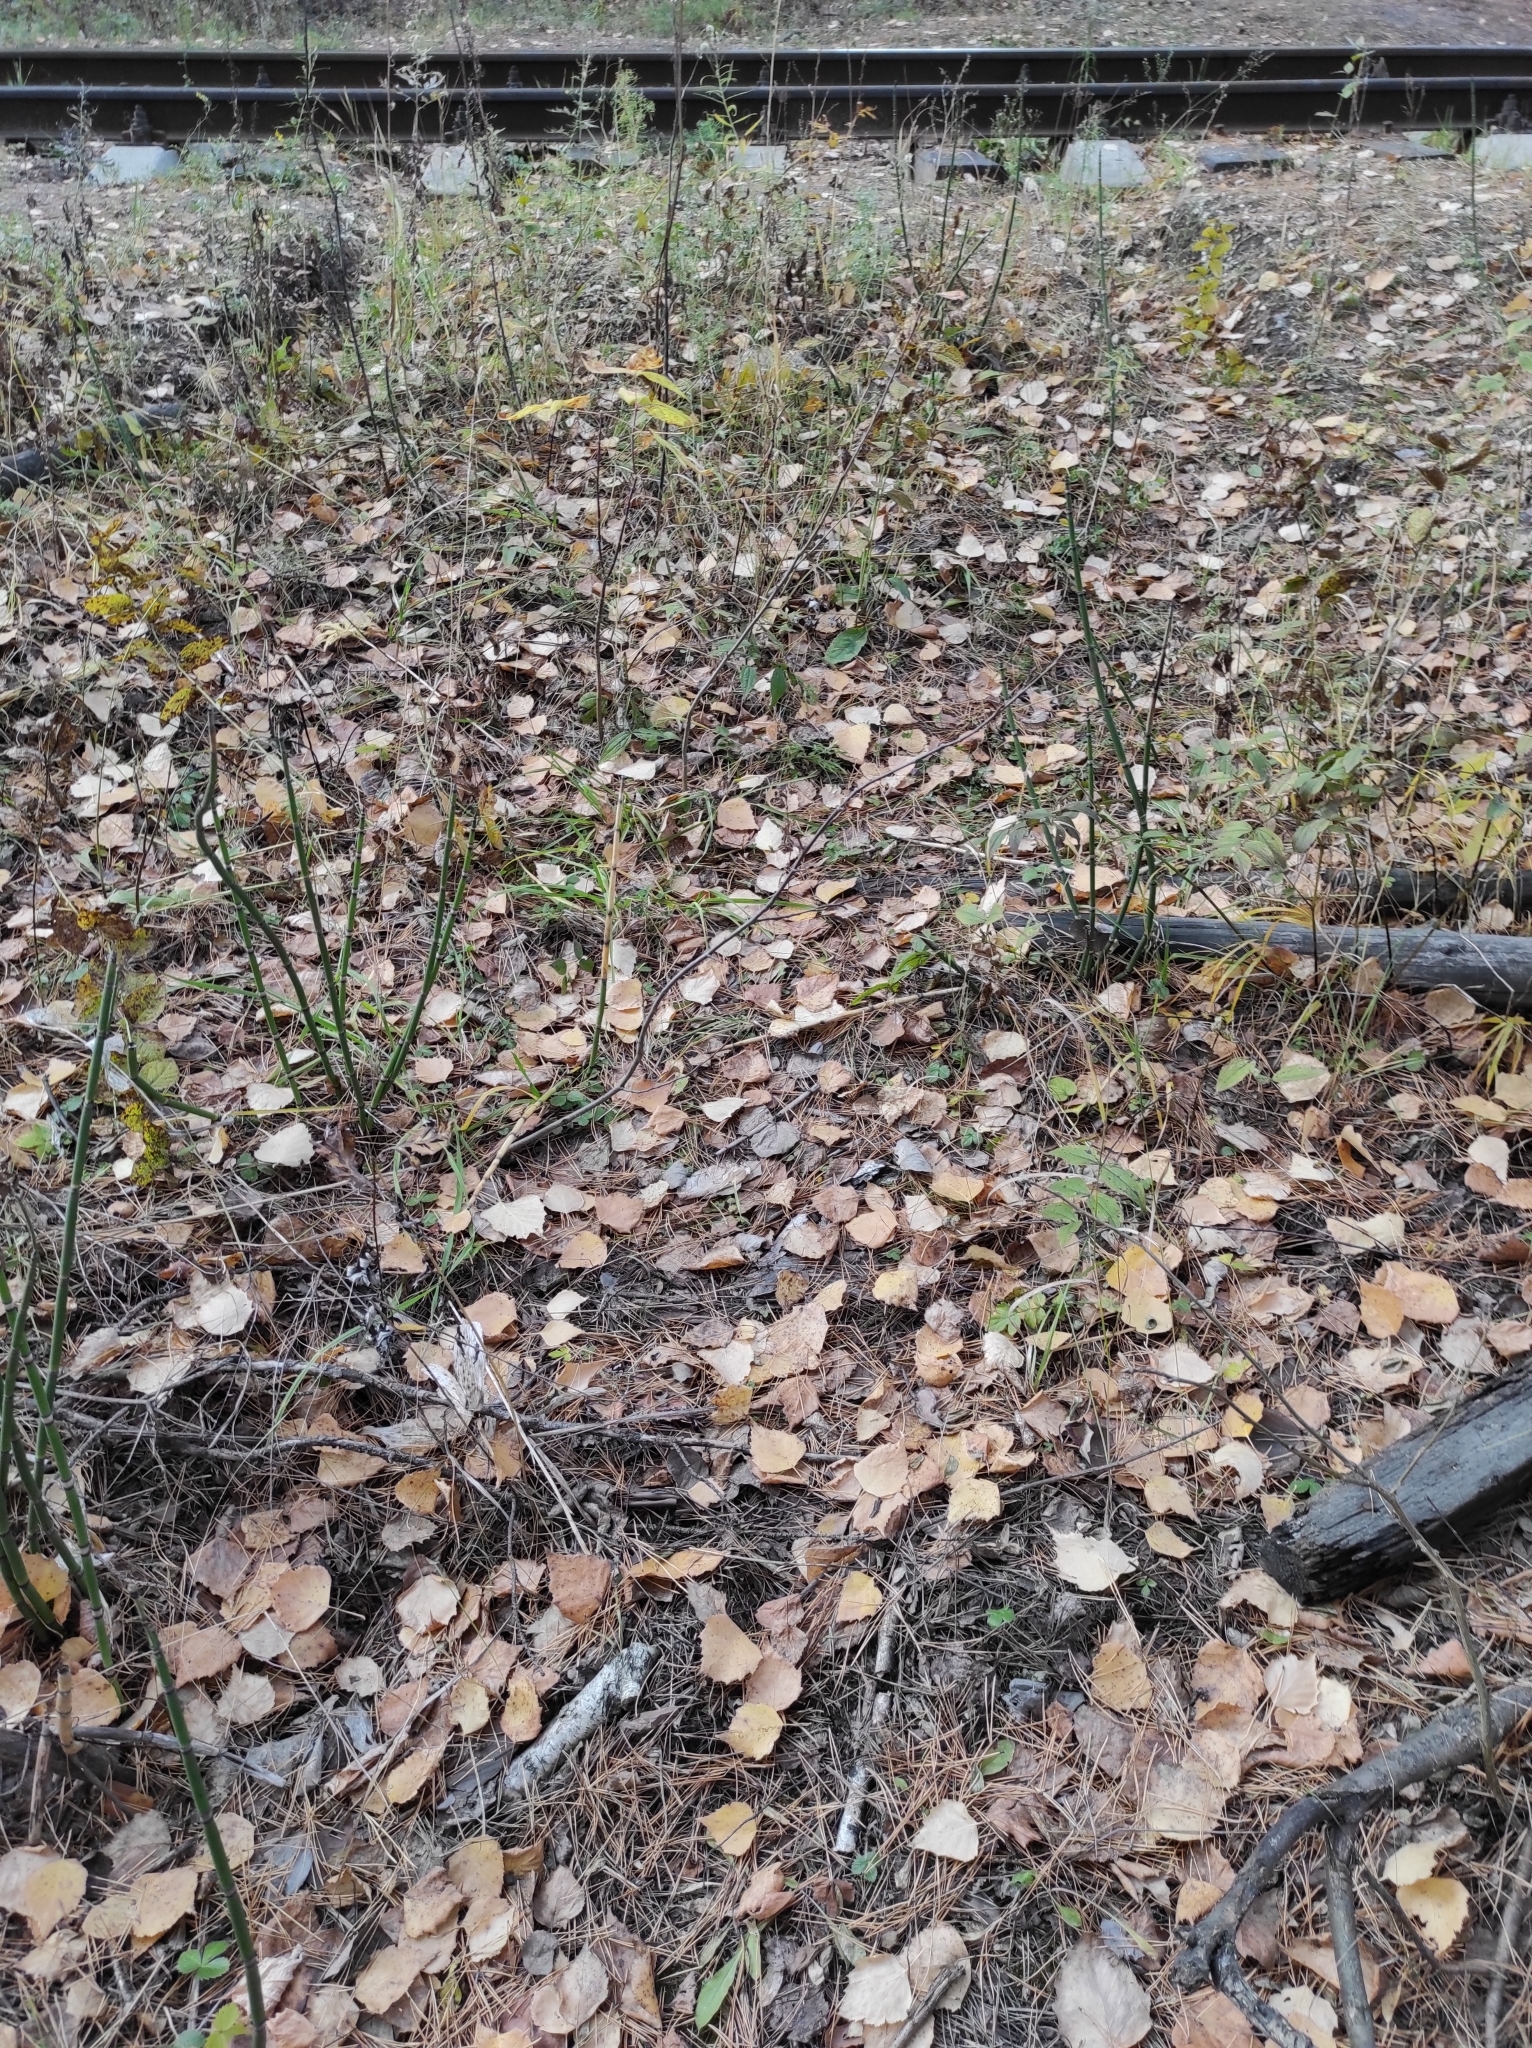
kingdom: Plantae
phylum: Tracheophyta
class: Polypodiopsida
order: Equisetales
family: Equisetaceae
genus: Equisetum
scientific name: Equisetum hyemale
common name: Rough horsetail
